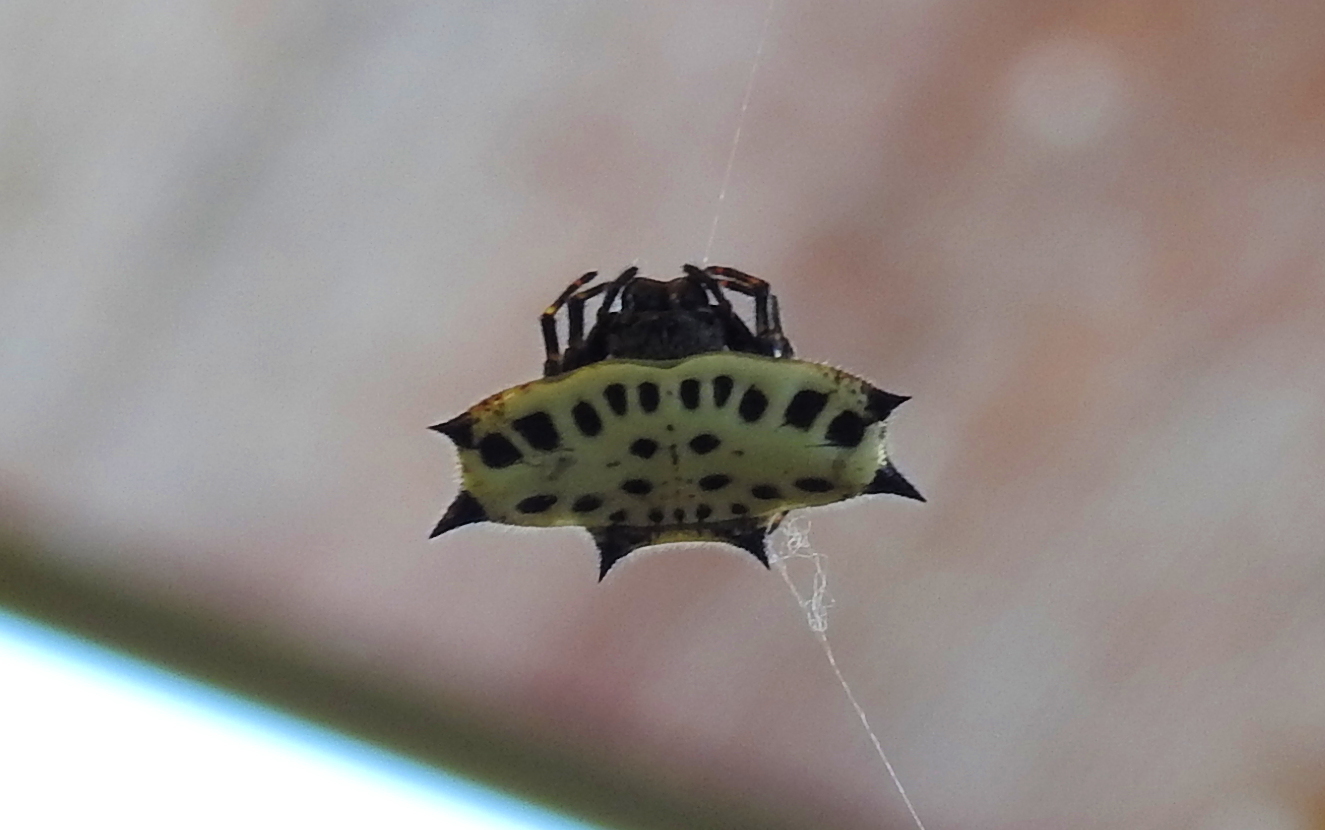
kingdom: Animalia
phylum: Arthropoda
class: Arachnida
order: Araneae
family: Araneidae
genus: Gasteracantha
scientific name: Gasteracantha cancriformis
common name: Orb weavers
